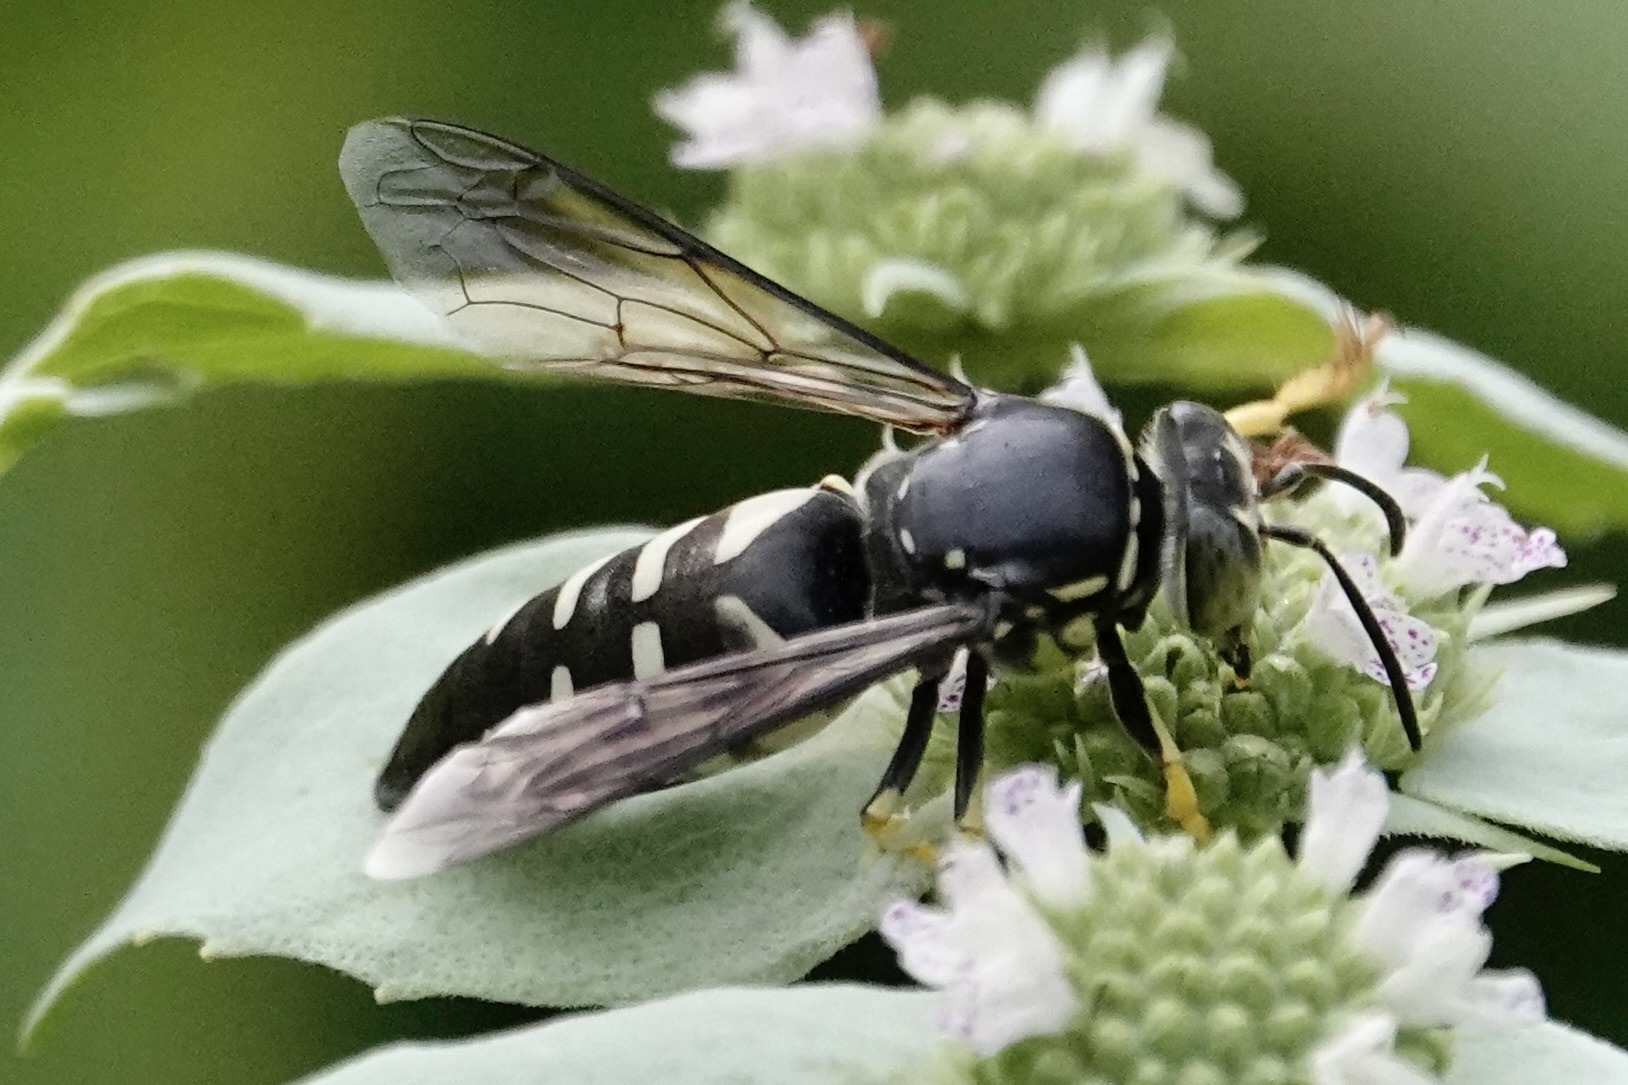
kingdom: Animalia
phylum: Arthropoda
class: Insecta
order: Hymenoptera
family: Crabronidae
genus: Bicyrtes
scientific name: Bicyrtes quadrifasciatus
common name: Four-banded stink bug hunter wasp
